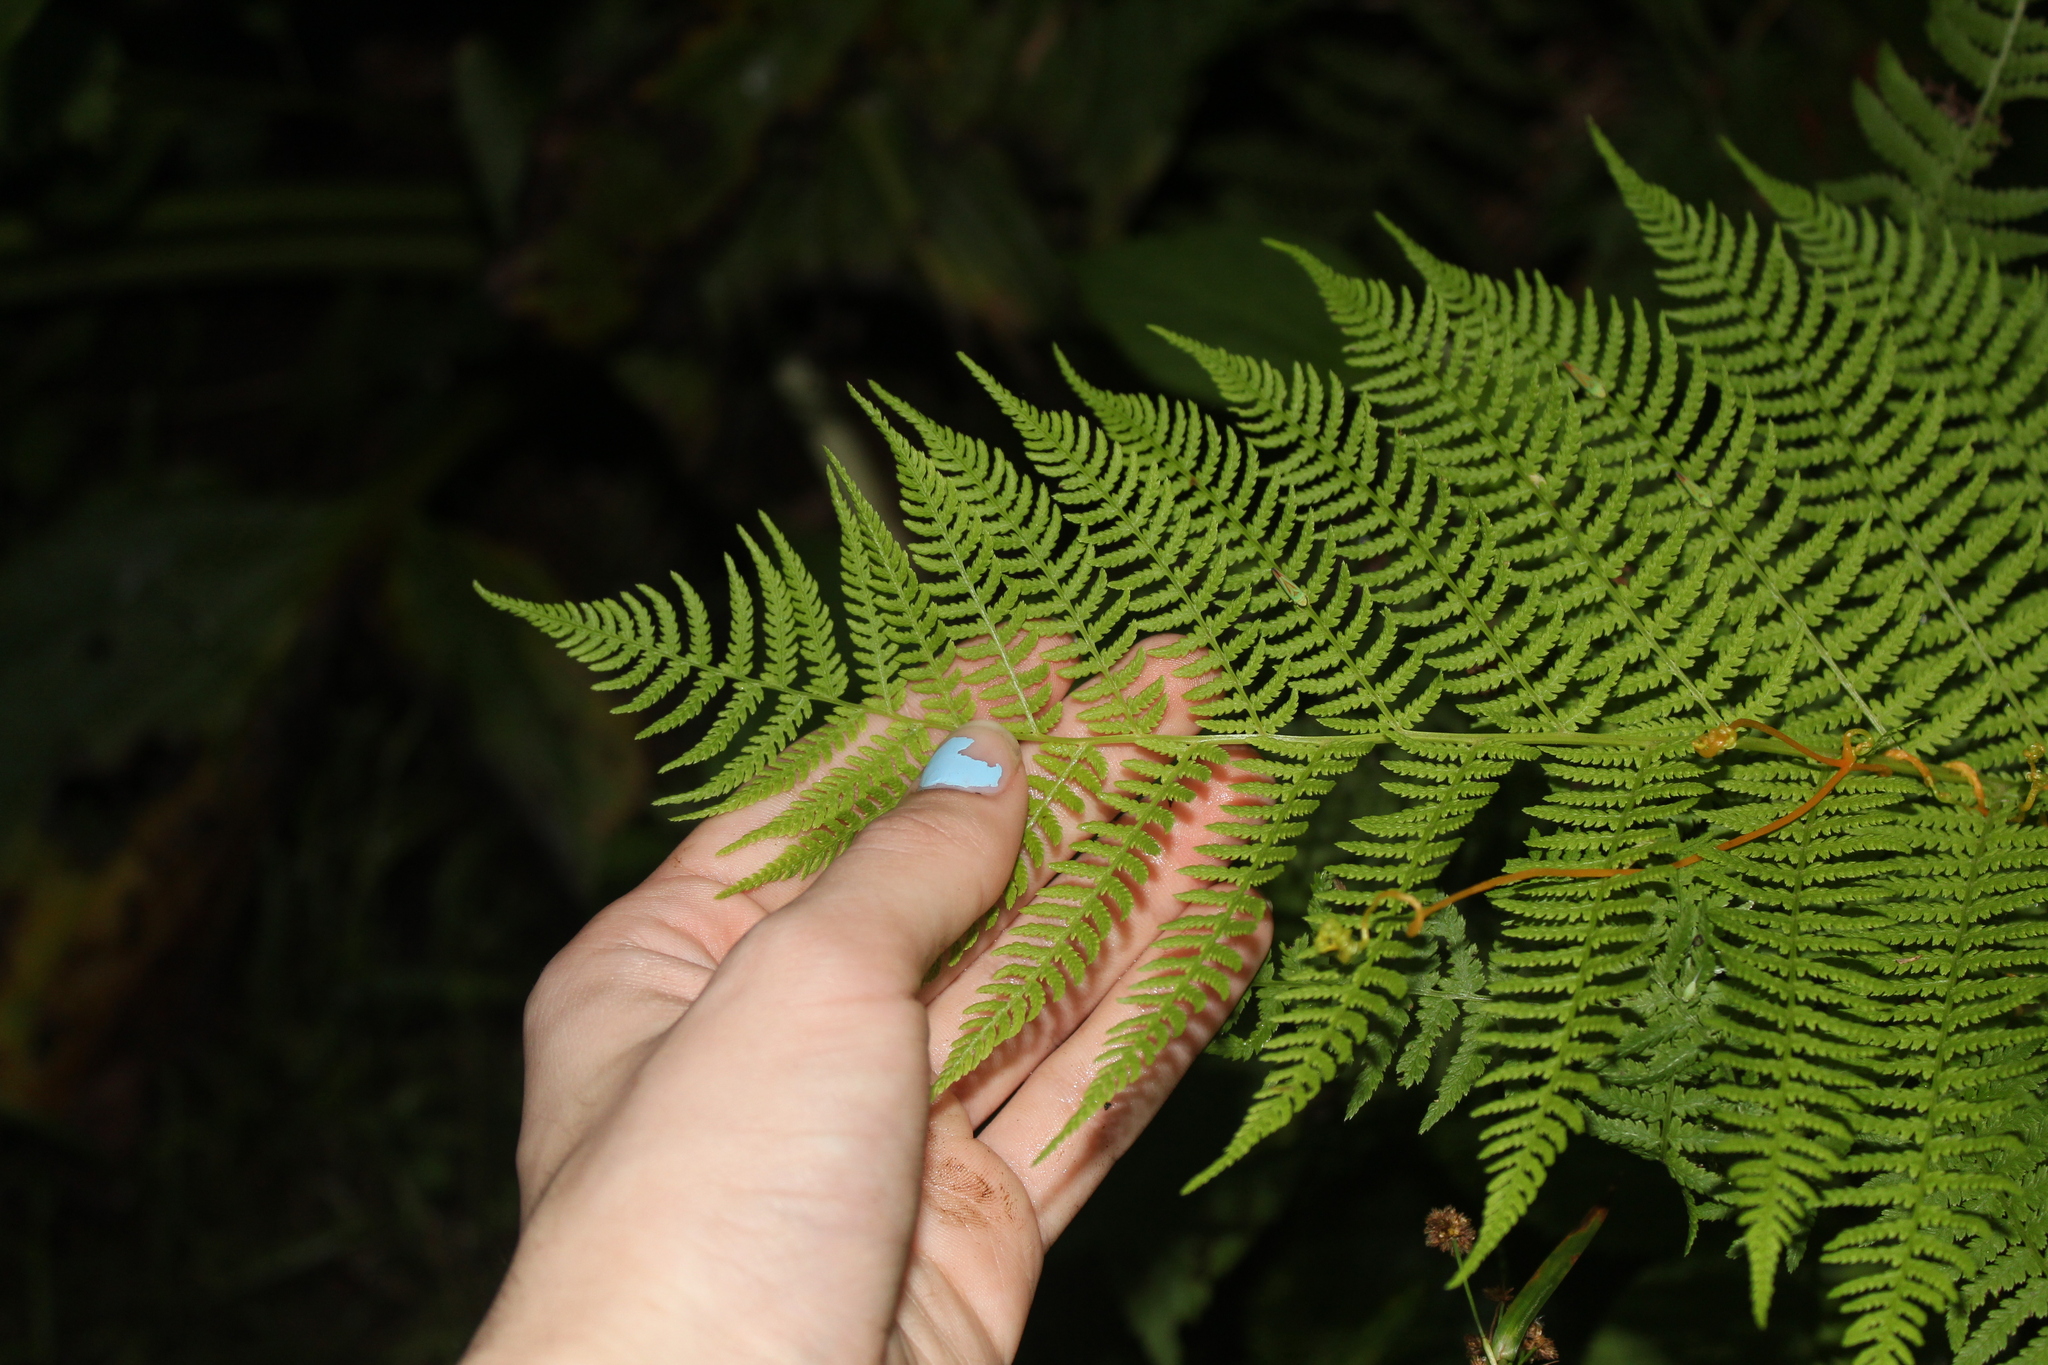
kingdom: Plantae
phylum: Tracheophyta
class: Polypodiopsida
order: Polypodiales
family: Athyriaceae
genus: Athyrium
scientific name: Athyrium angustum
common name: Northern lady fern
